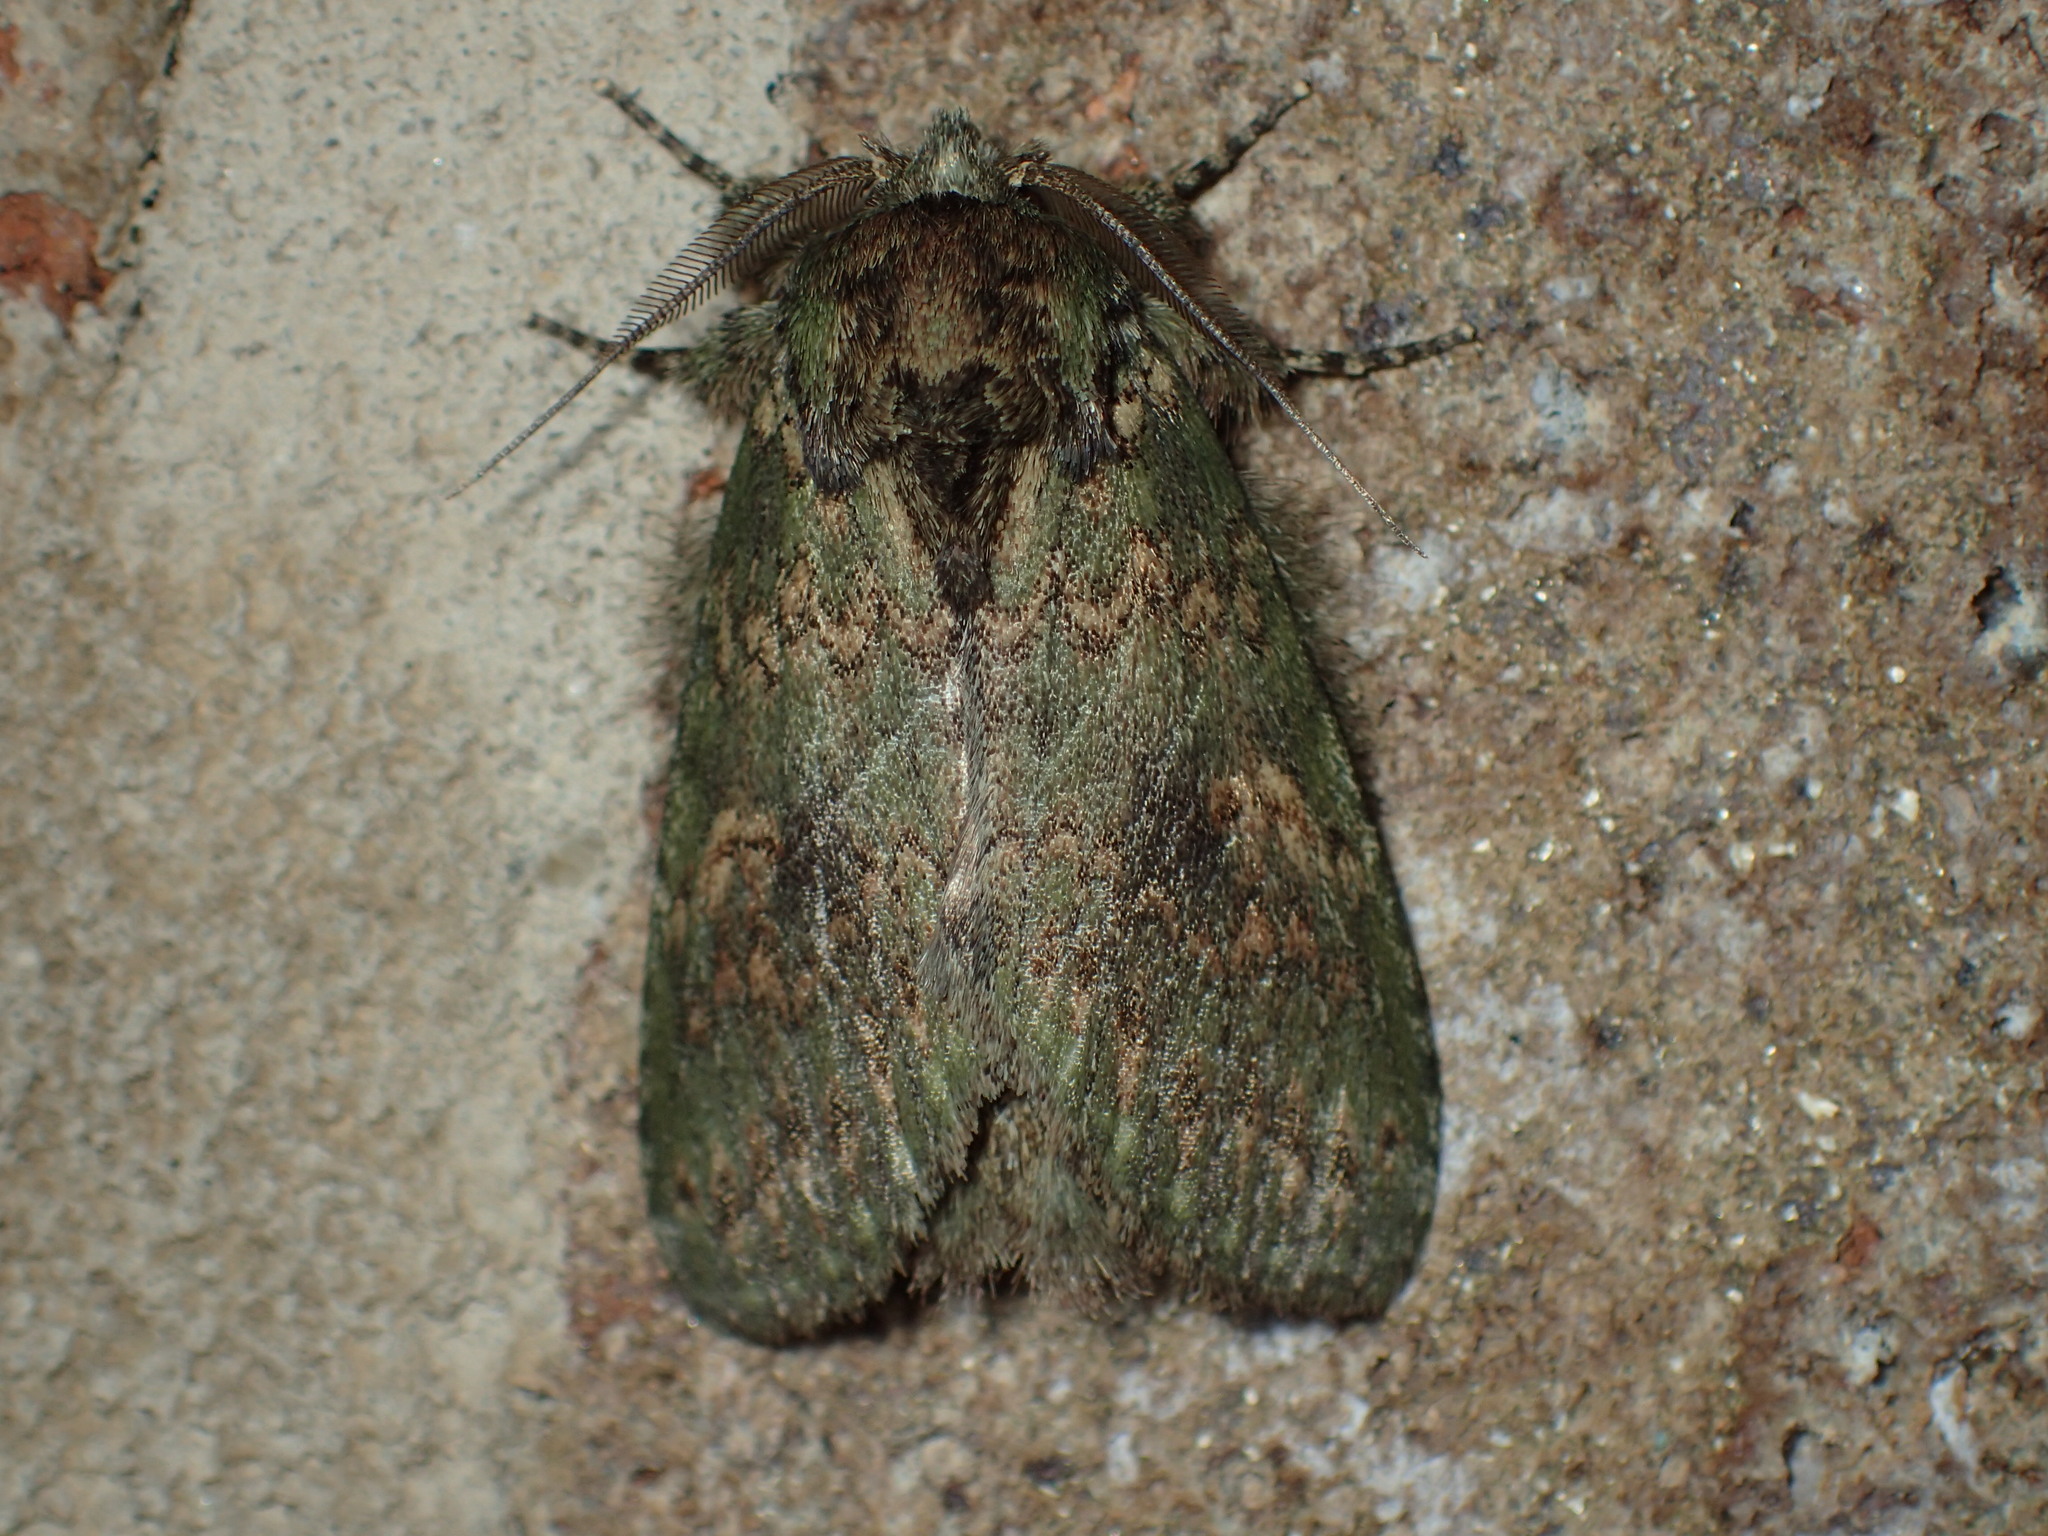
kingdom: Animalia
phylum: Arthropoda
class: Insecta
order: Lepidoptera
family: Notodontidae
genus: Disphragis
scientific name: Disphragis Cecrita biundata
